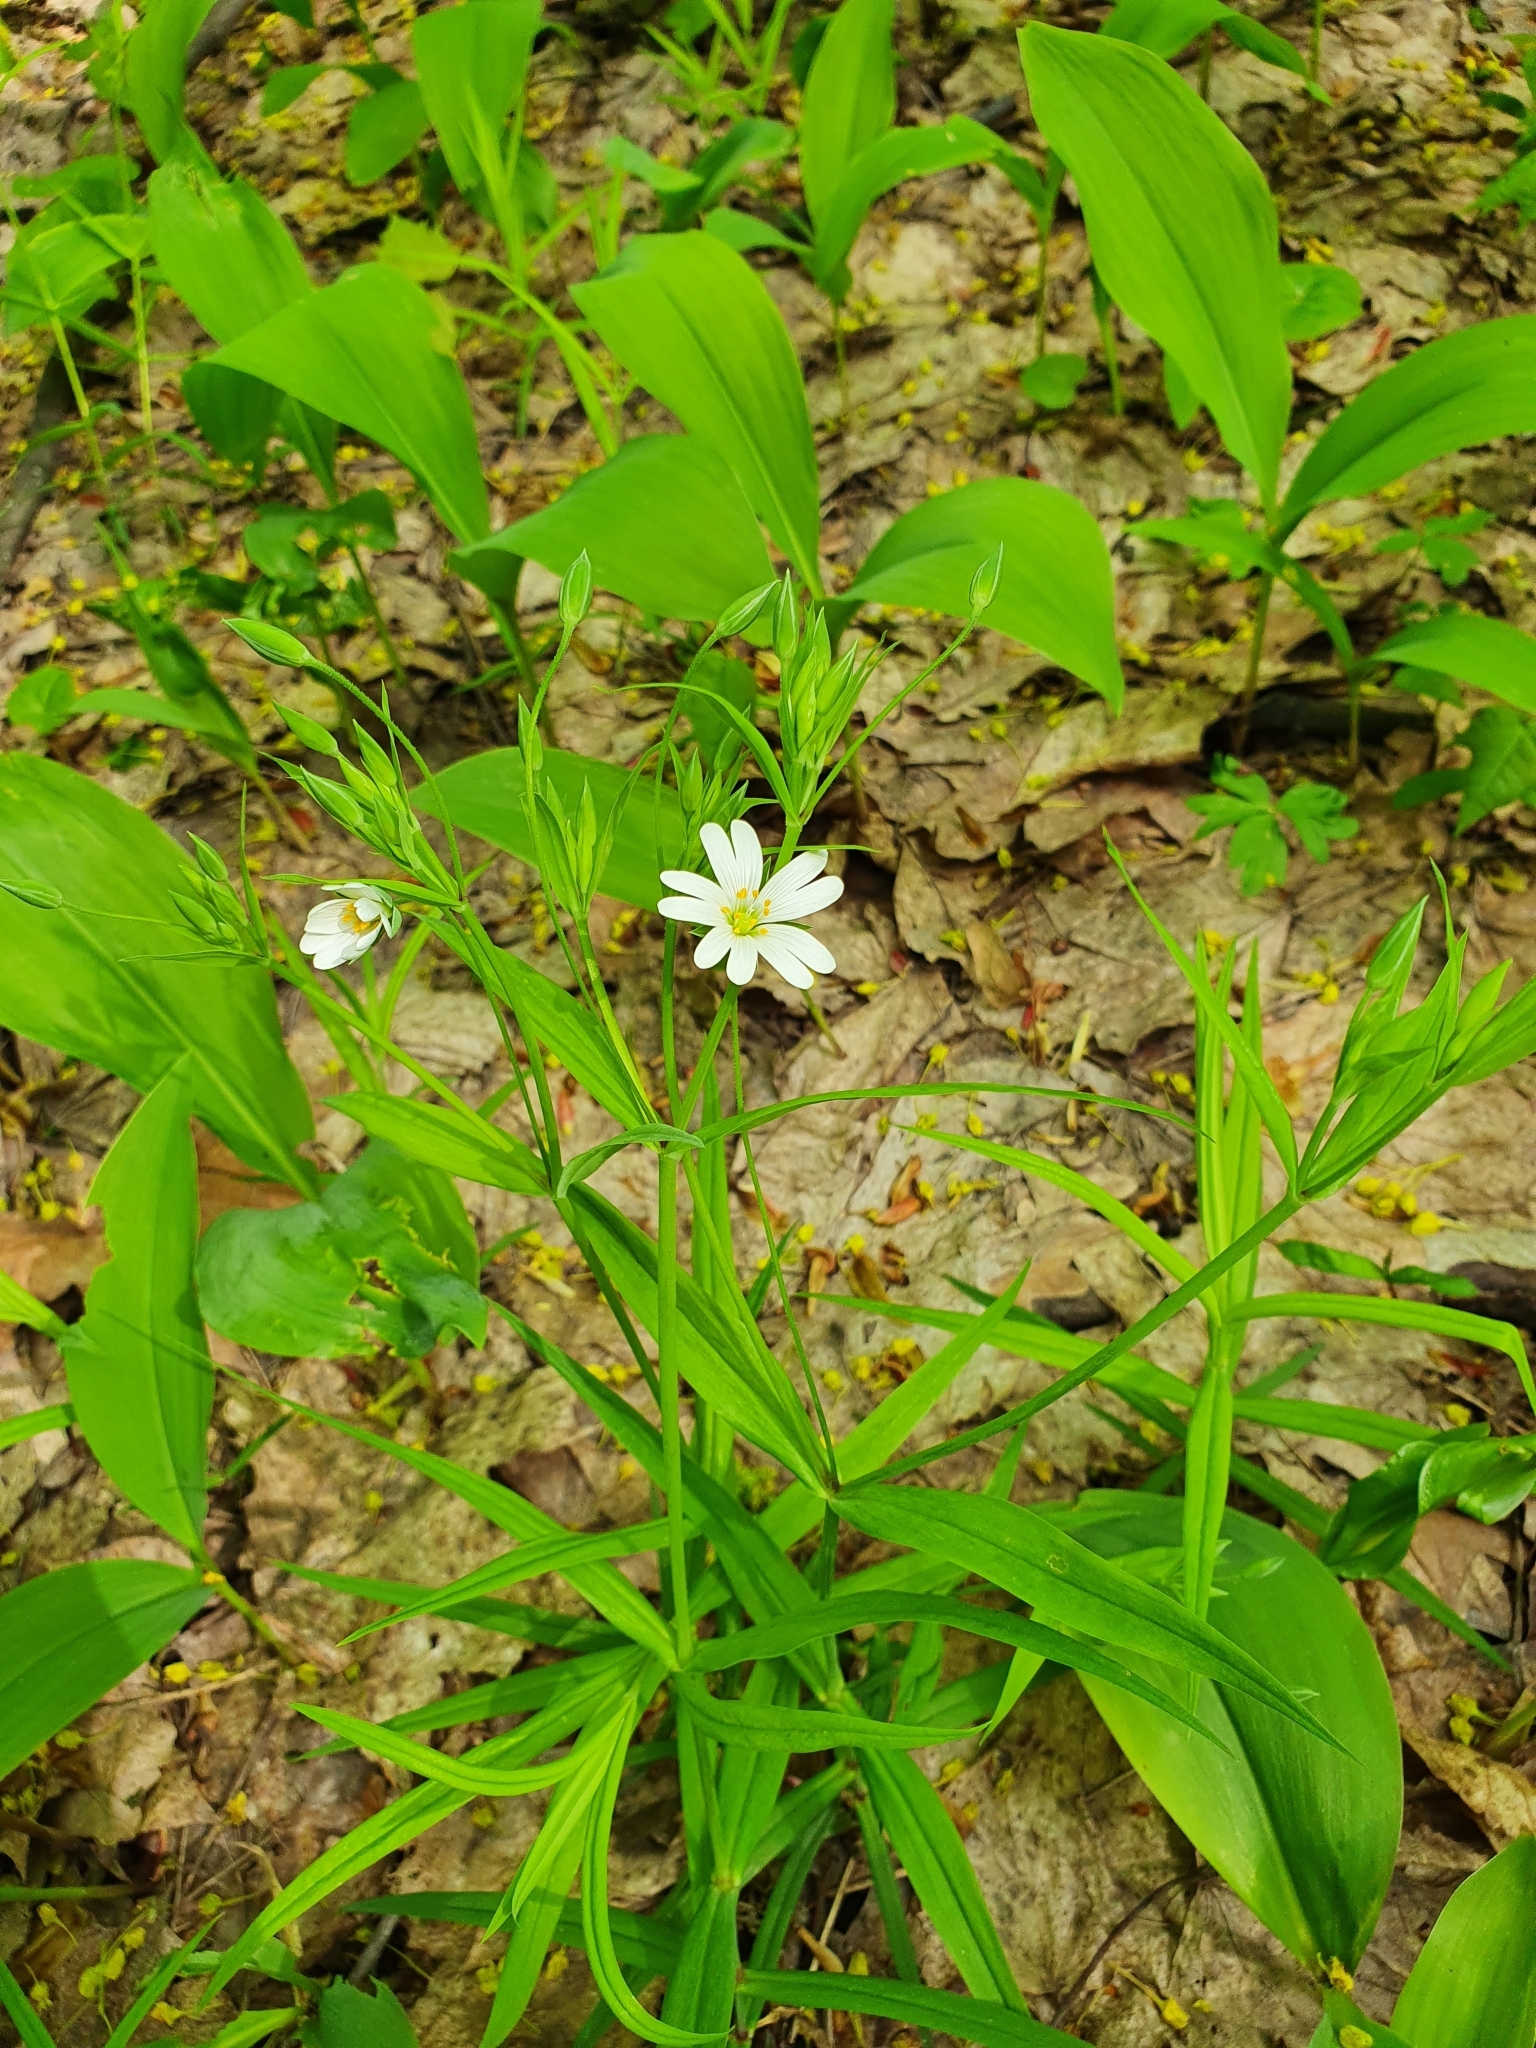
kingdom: Plantae
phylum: Tracheophyta
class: Magnoliopsida
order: Caryophyllales
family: Caryophyllaceae
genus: Rabelera
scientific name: Rabelera holostea
